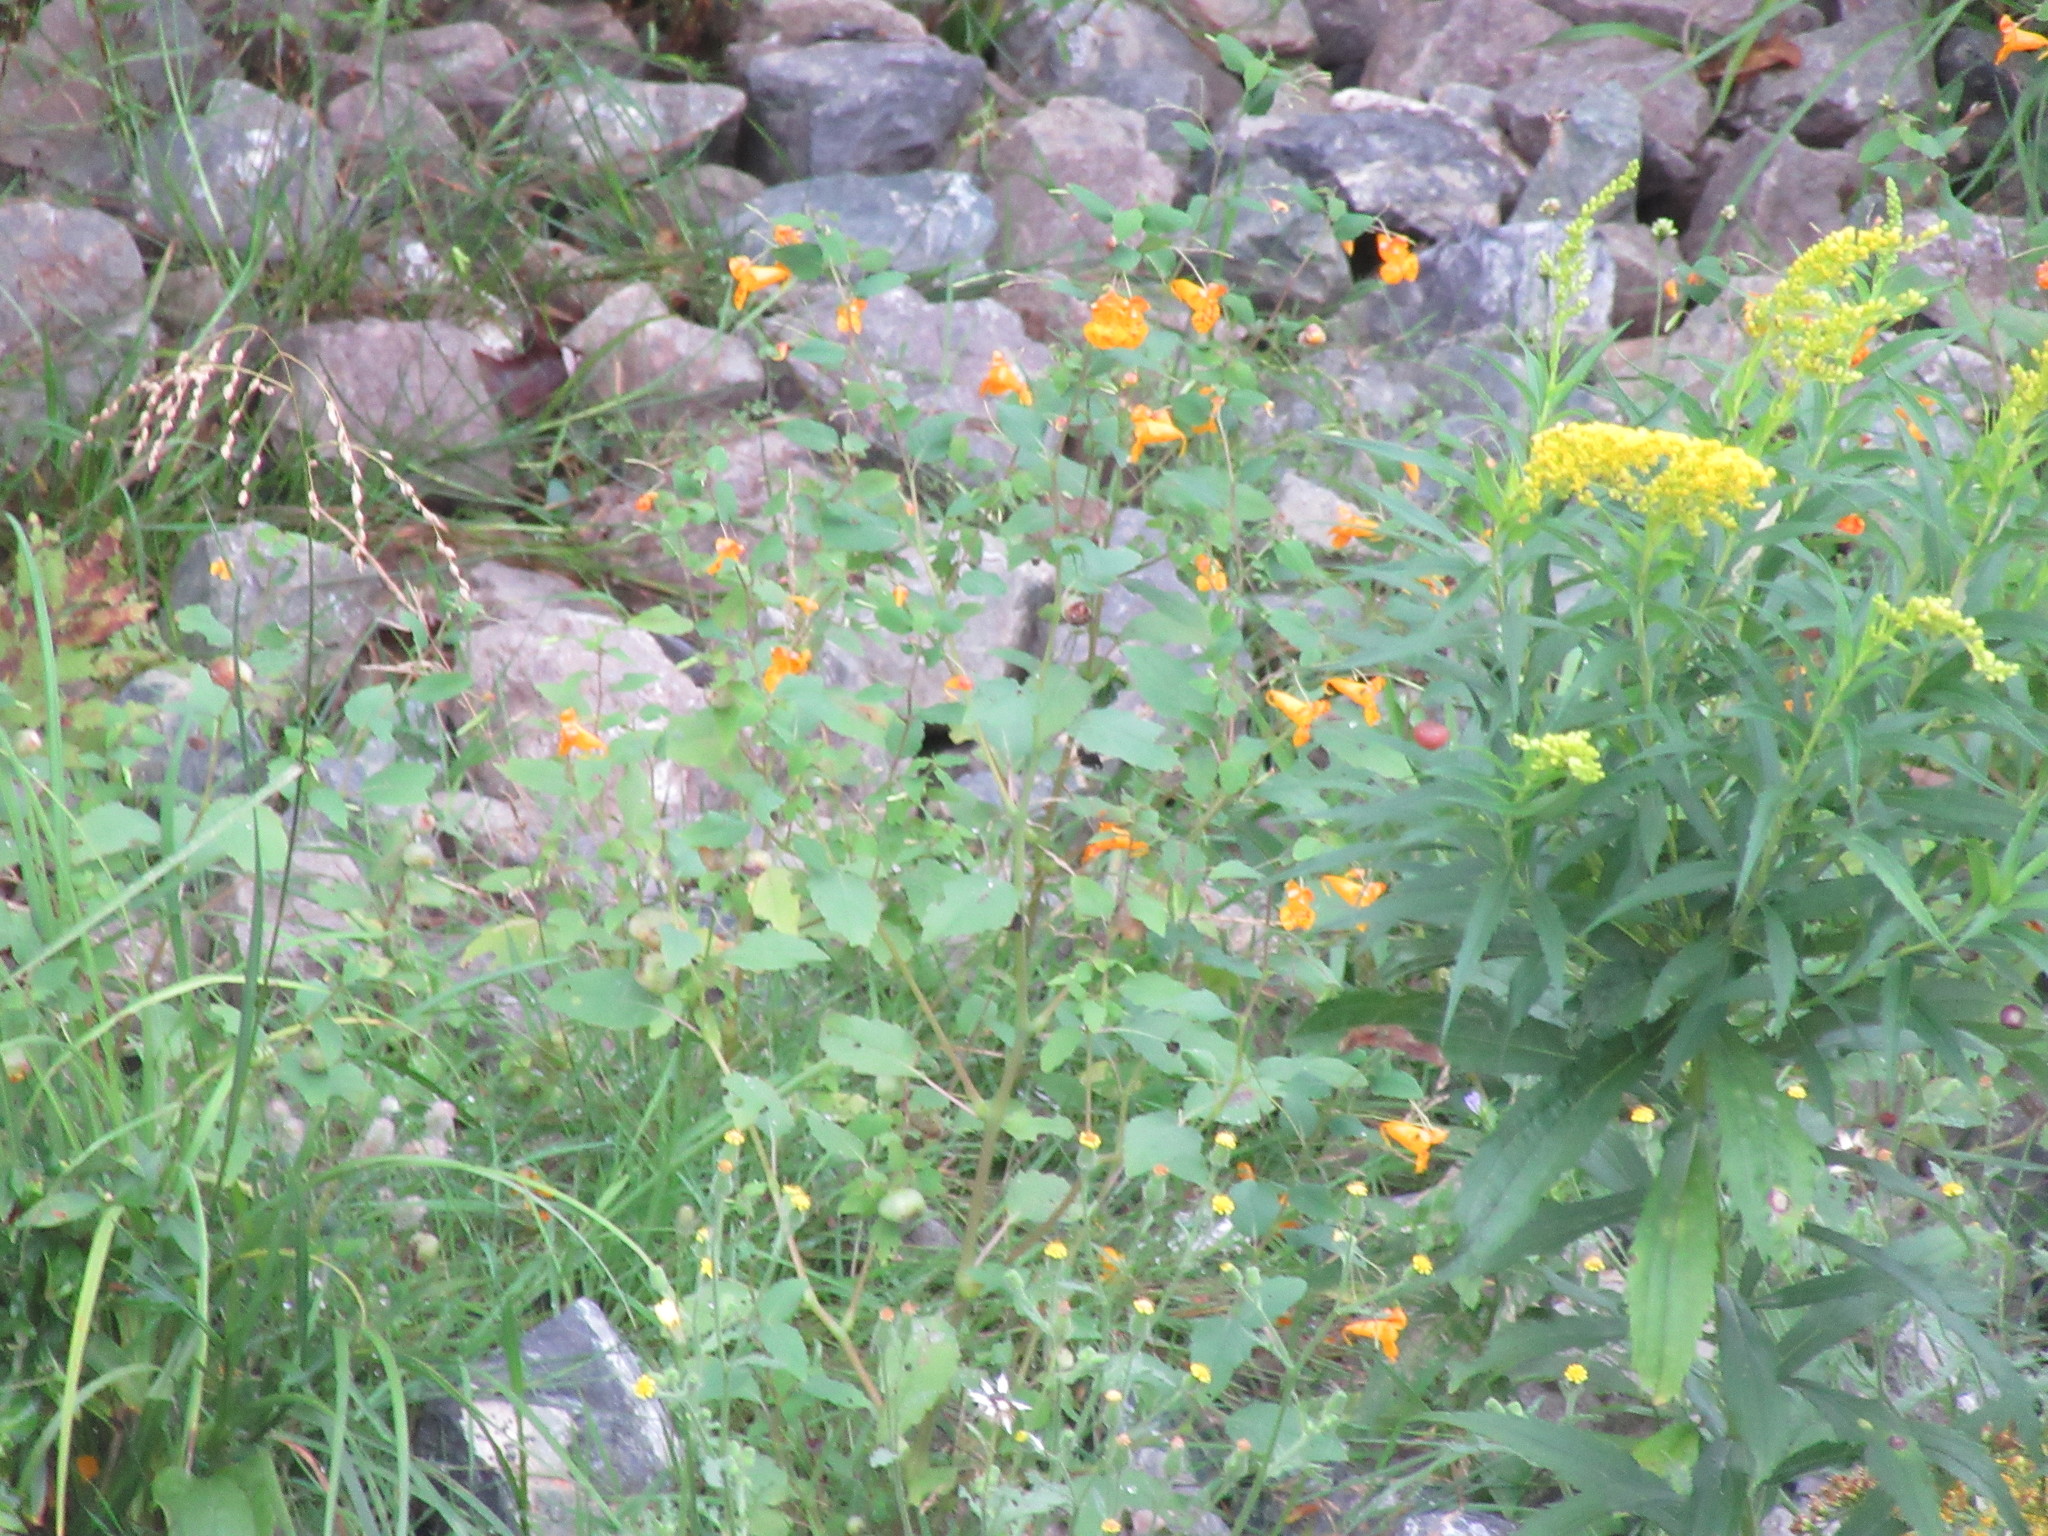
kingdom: Plantae
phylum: Tracheophyta
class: Magnoliopsida
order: Ericales
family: Balsaminaceae
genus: Impatiens
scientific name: Impatiens capensis
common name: Orange balsam
